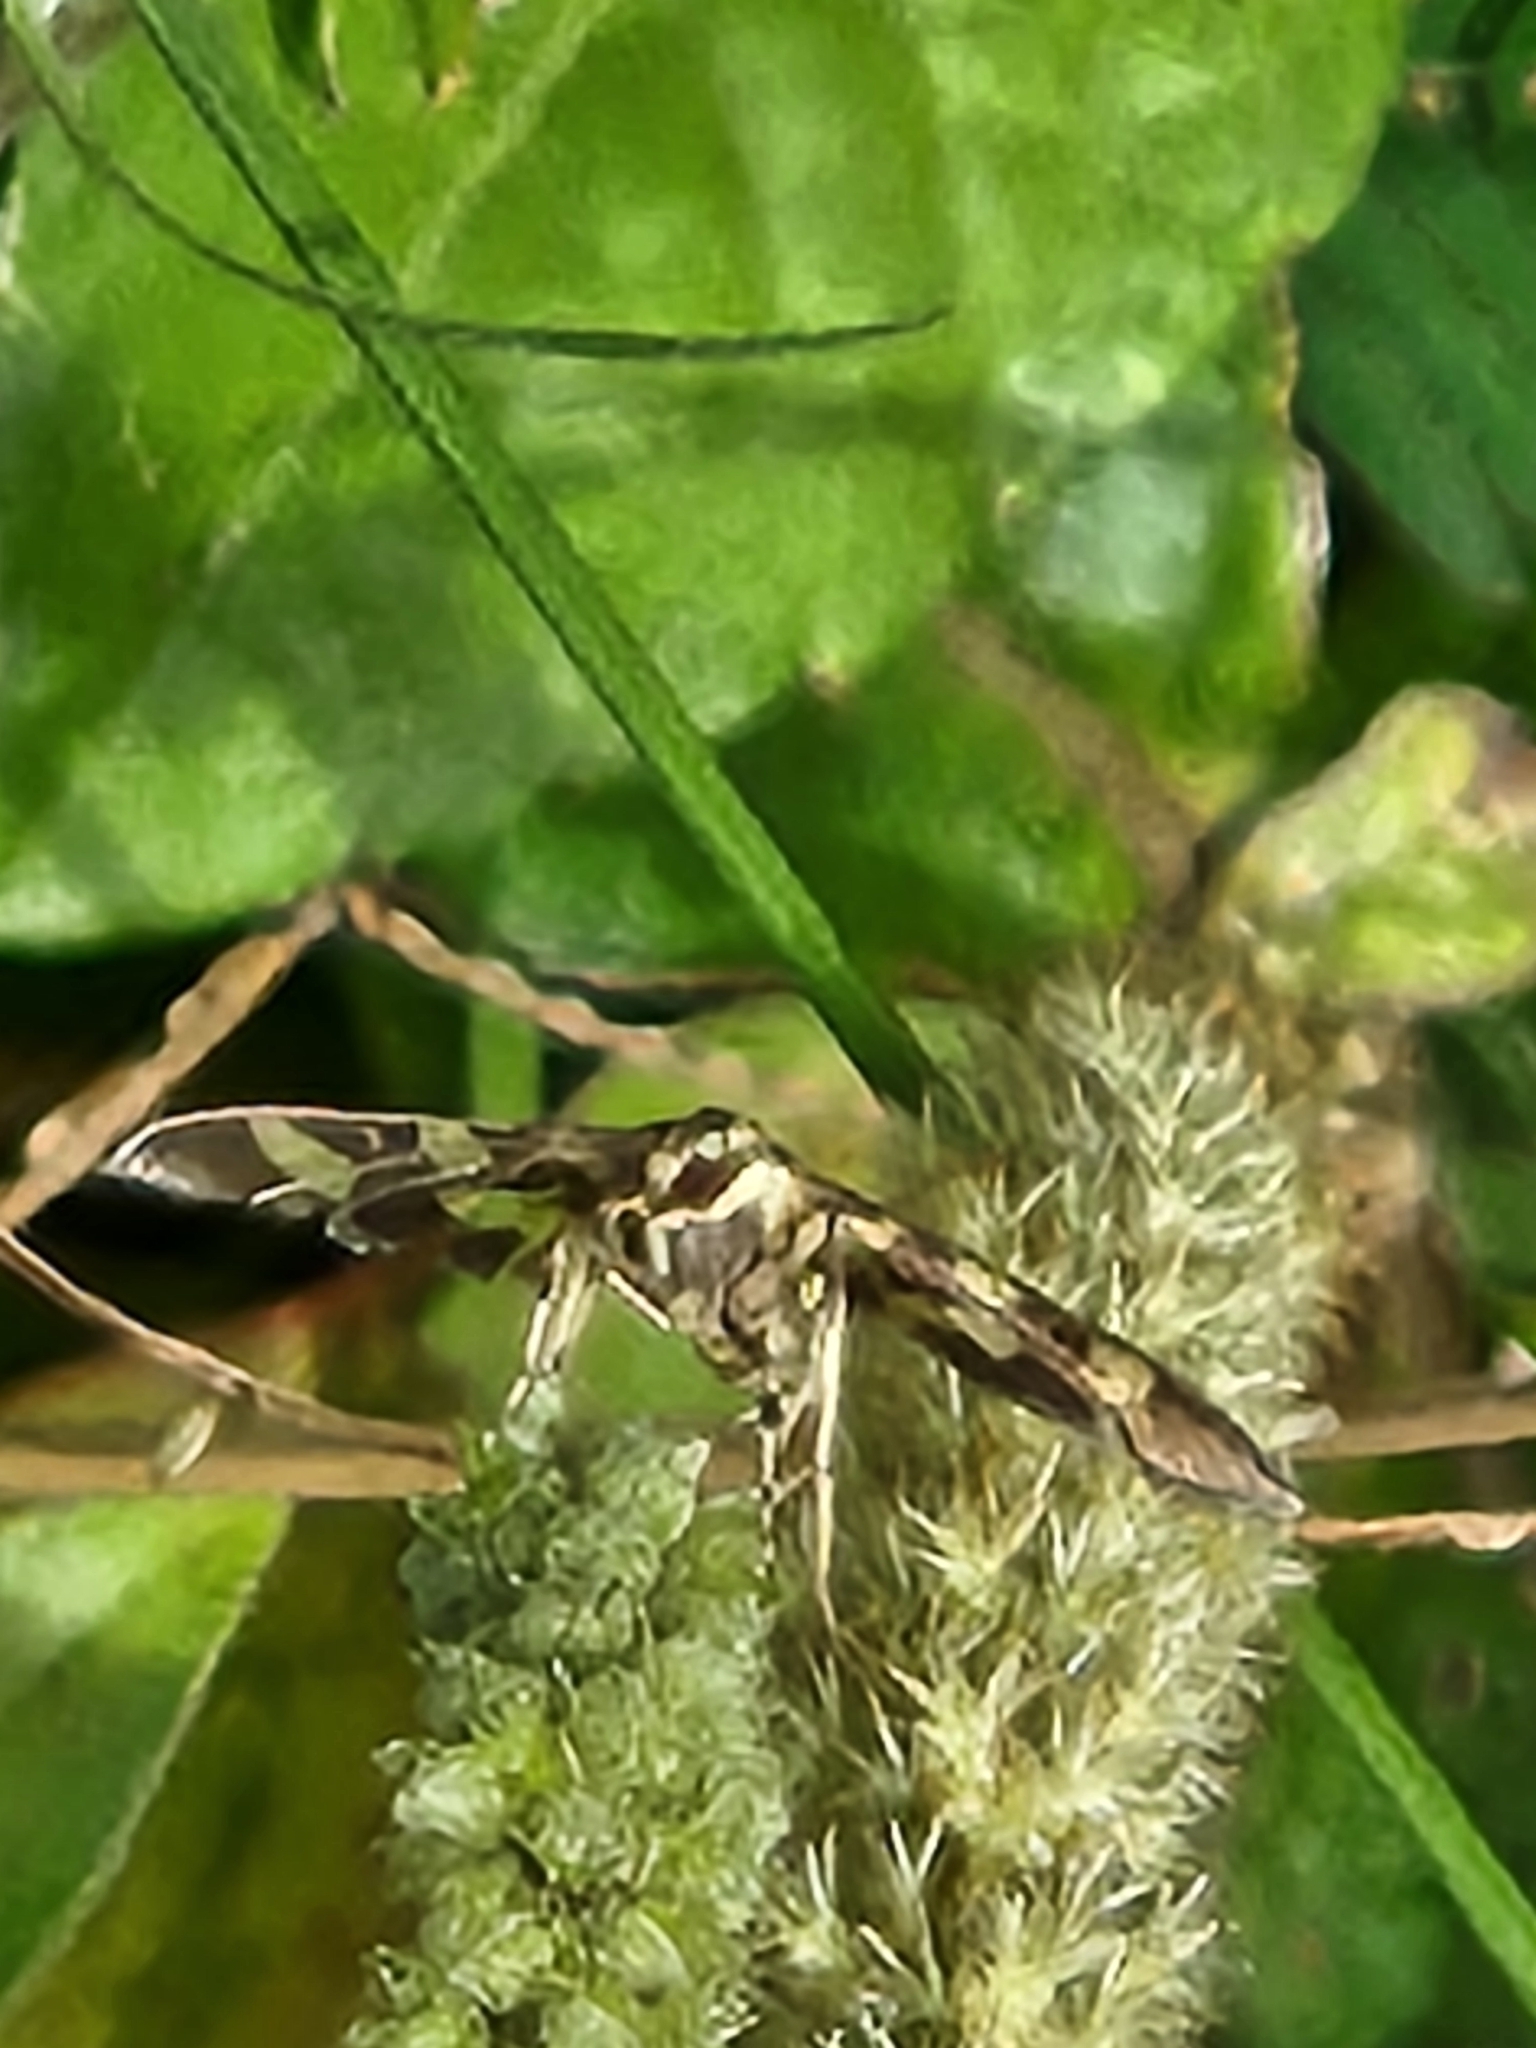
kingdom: Animalia
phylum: Arthropoda
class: Insecta
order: Lepidoptera
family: Crambidae
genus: Syngamia
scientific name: Syngamia florella
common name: Orange-spotted flower moth
